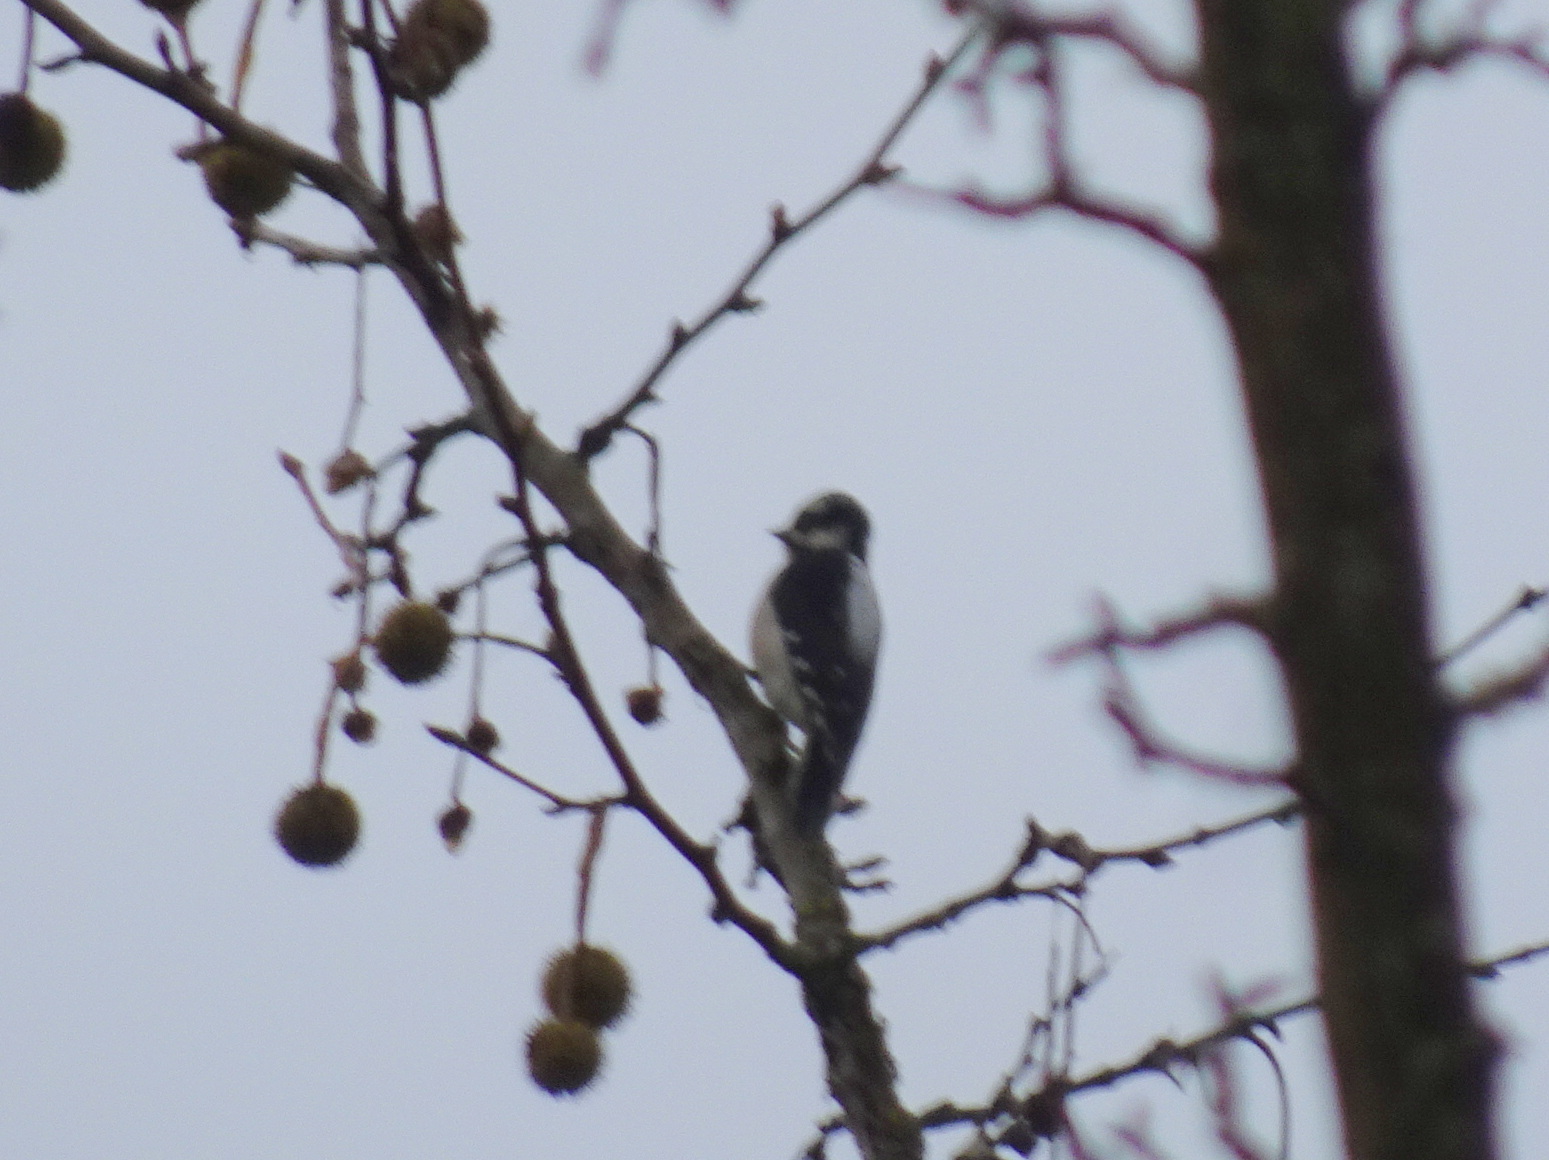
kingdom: Animalia
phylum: Chordata
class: Aves
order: Piciformes
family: Picidae
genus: Dryobates
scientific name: Dryobates pubescens
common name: Downy woodpecker
